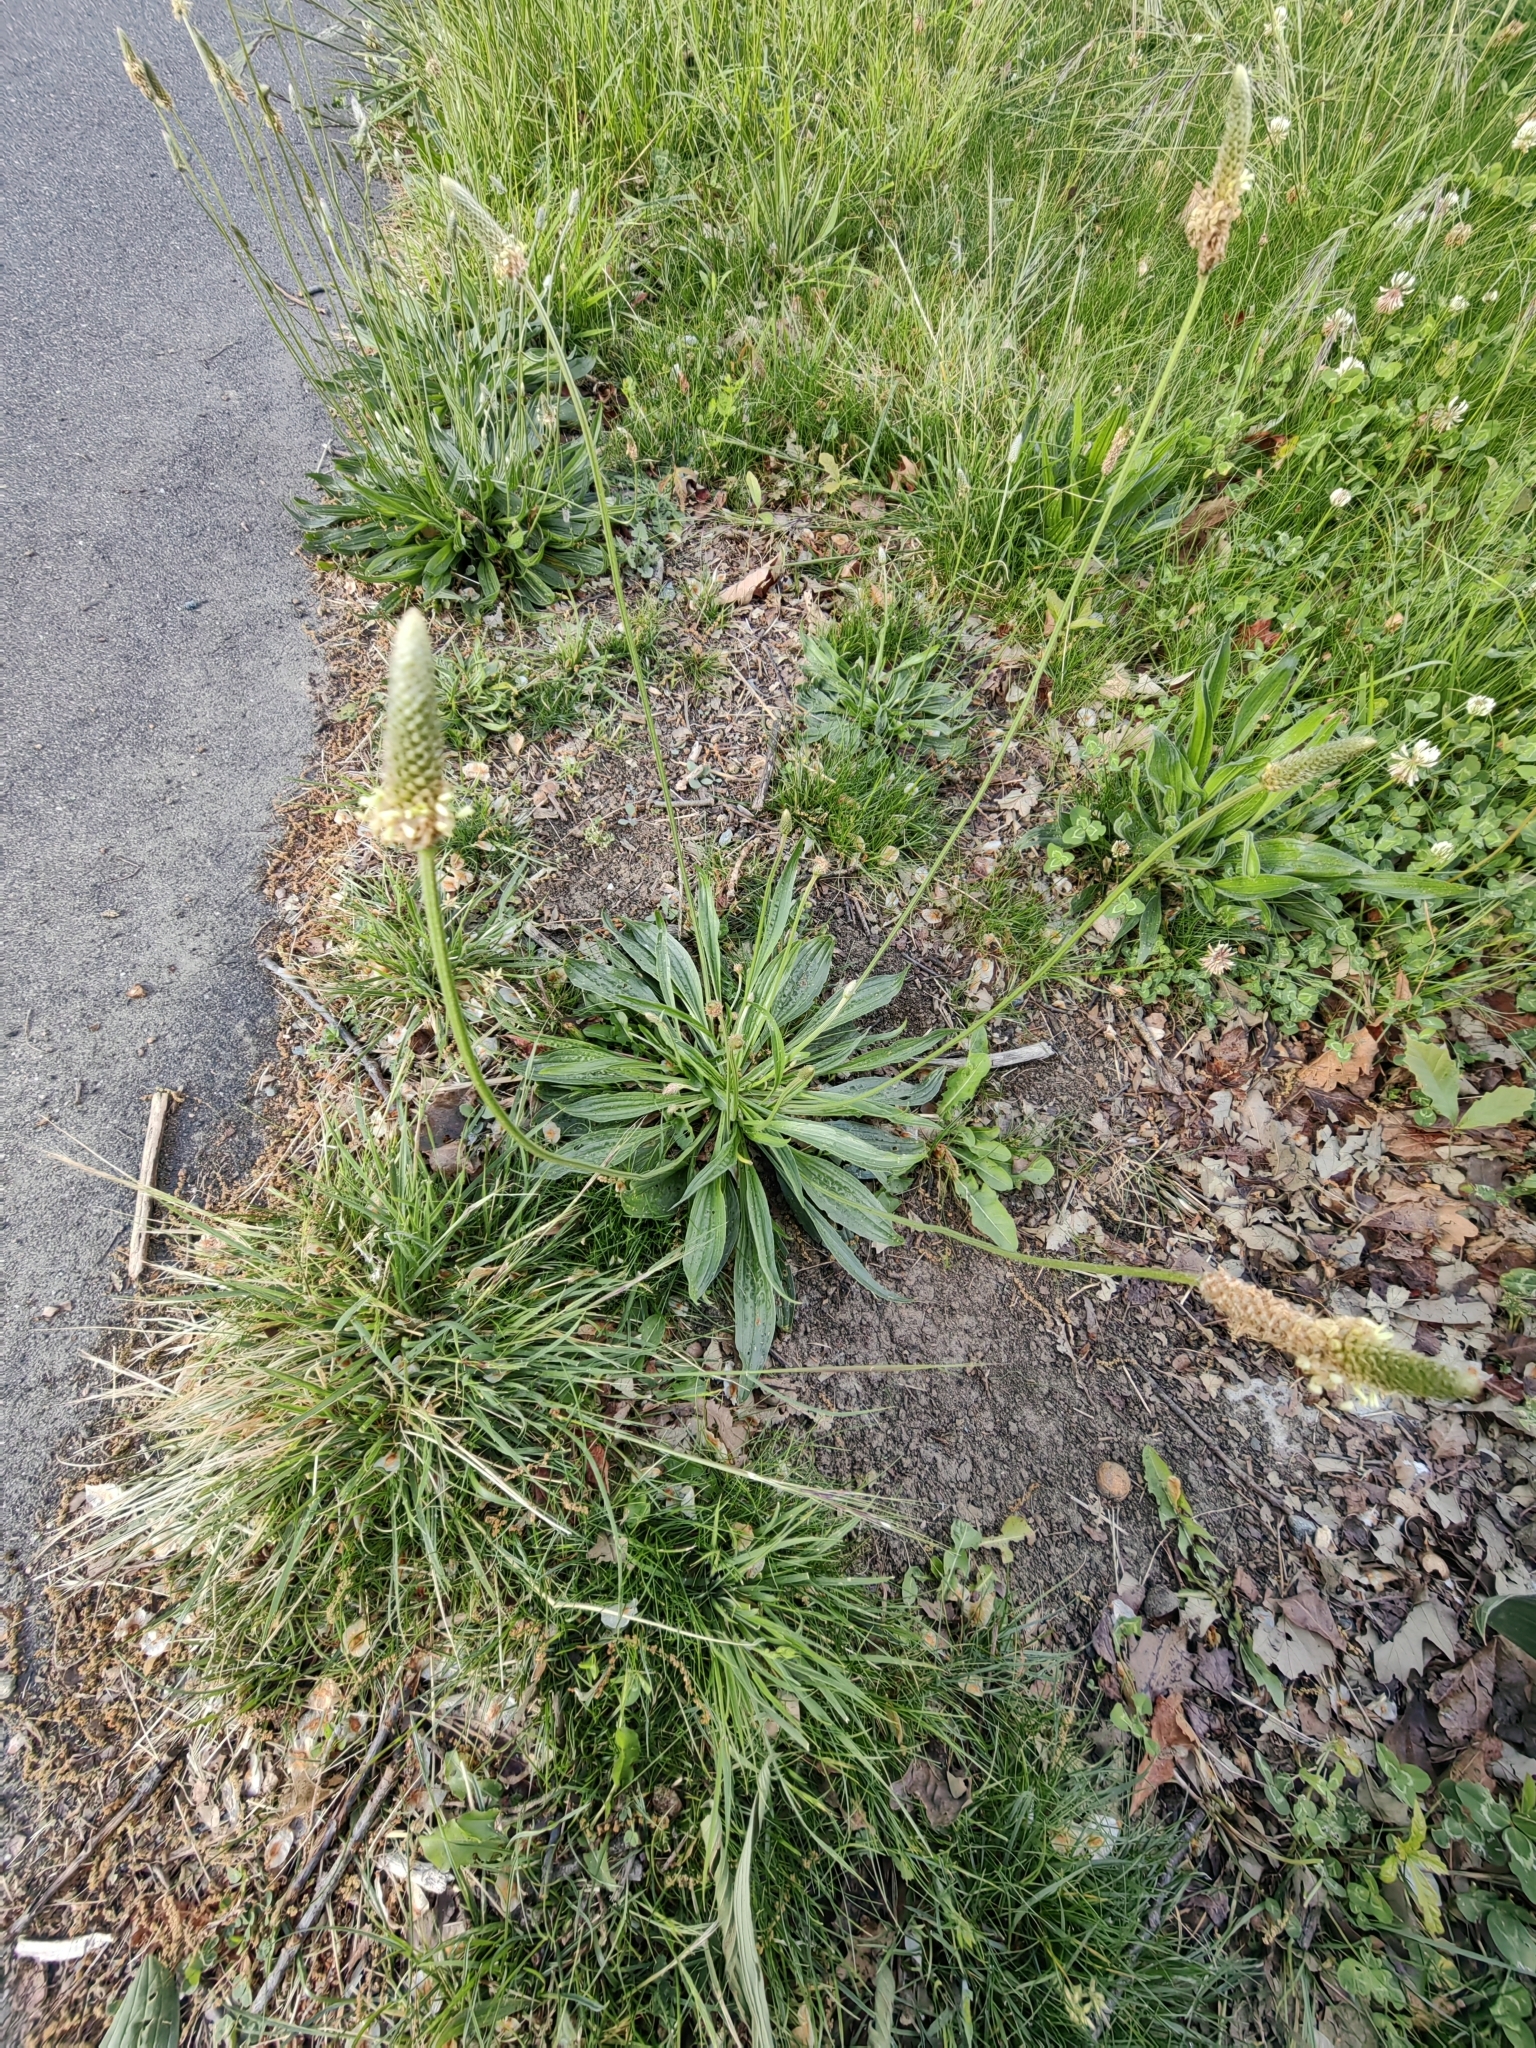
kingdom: Plantae
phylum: Tracheophyta
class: Magnoliopsida
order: Lamiales
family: Plantaginaceae
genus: Plantago
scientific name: Plantago lanceolata
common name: Ribwort plantain
